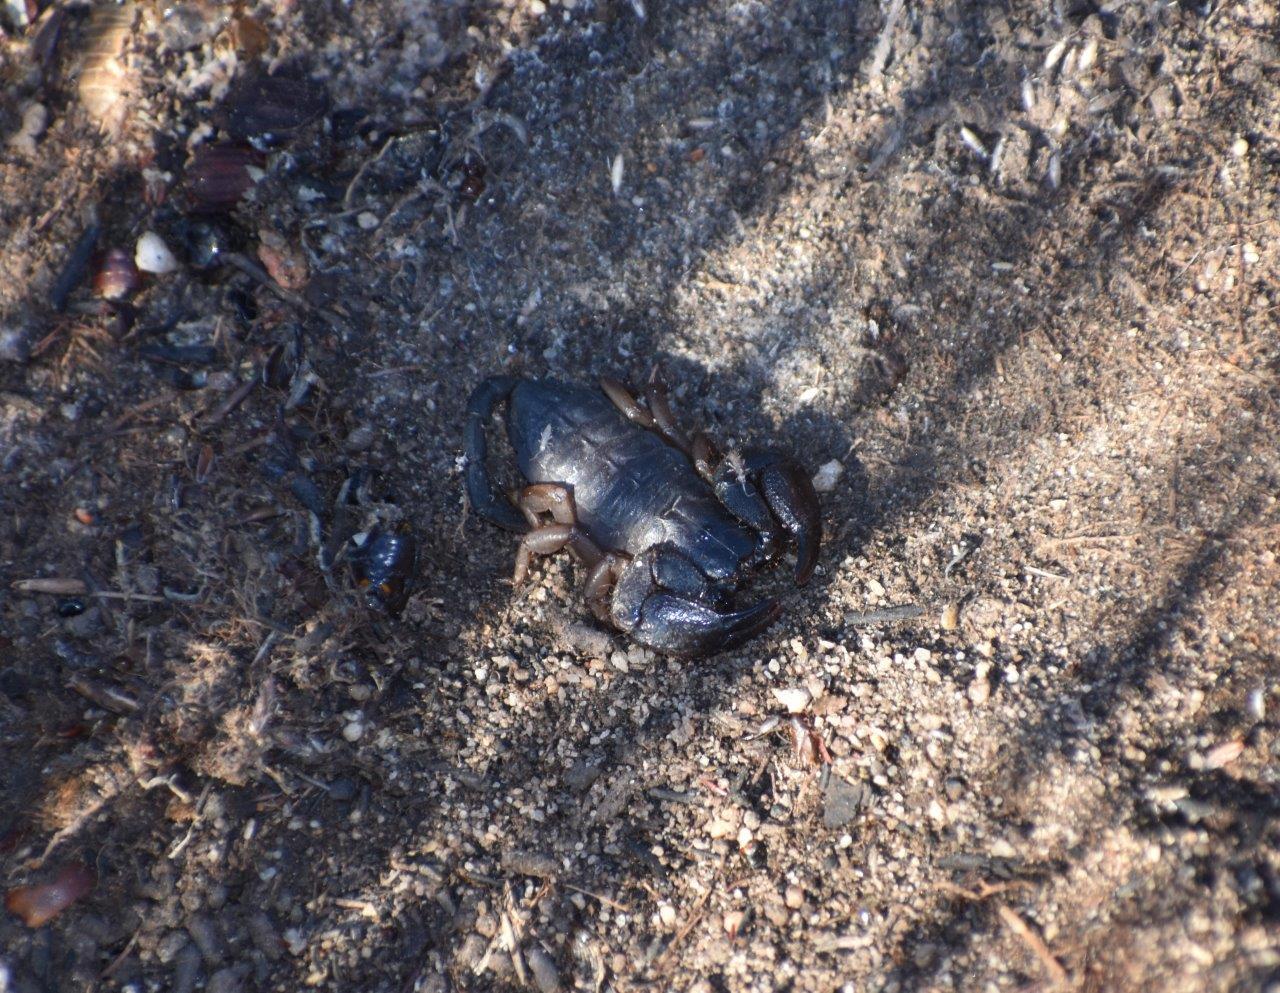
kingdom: Animalia
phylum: Arthropoda
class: Arachnida
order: Scorpiones
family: Hormuridae
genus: Opisthacanthus
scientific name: Opisthacanthus diremptus
